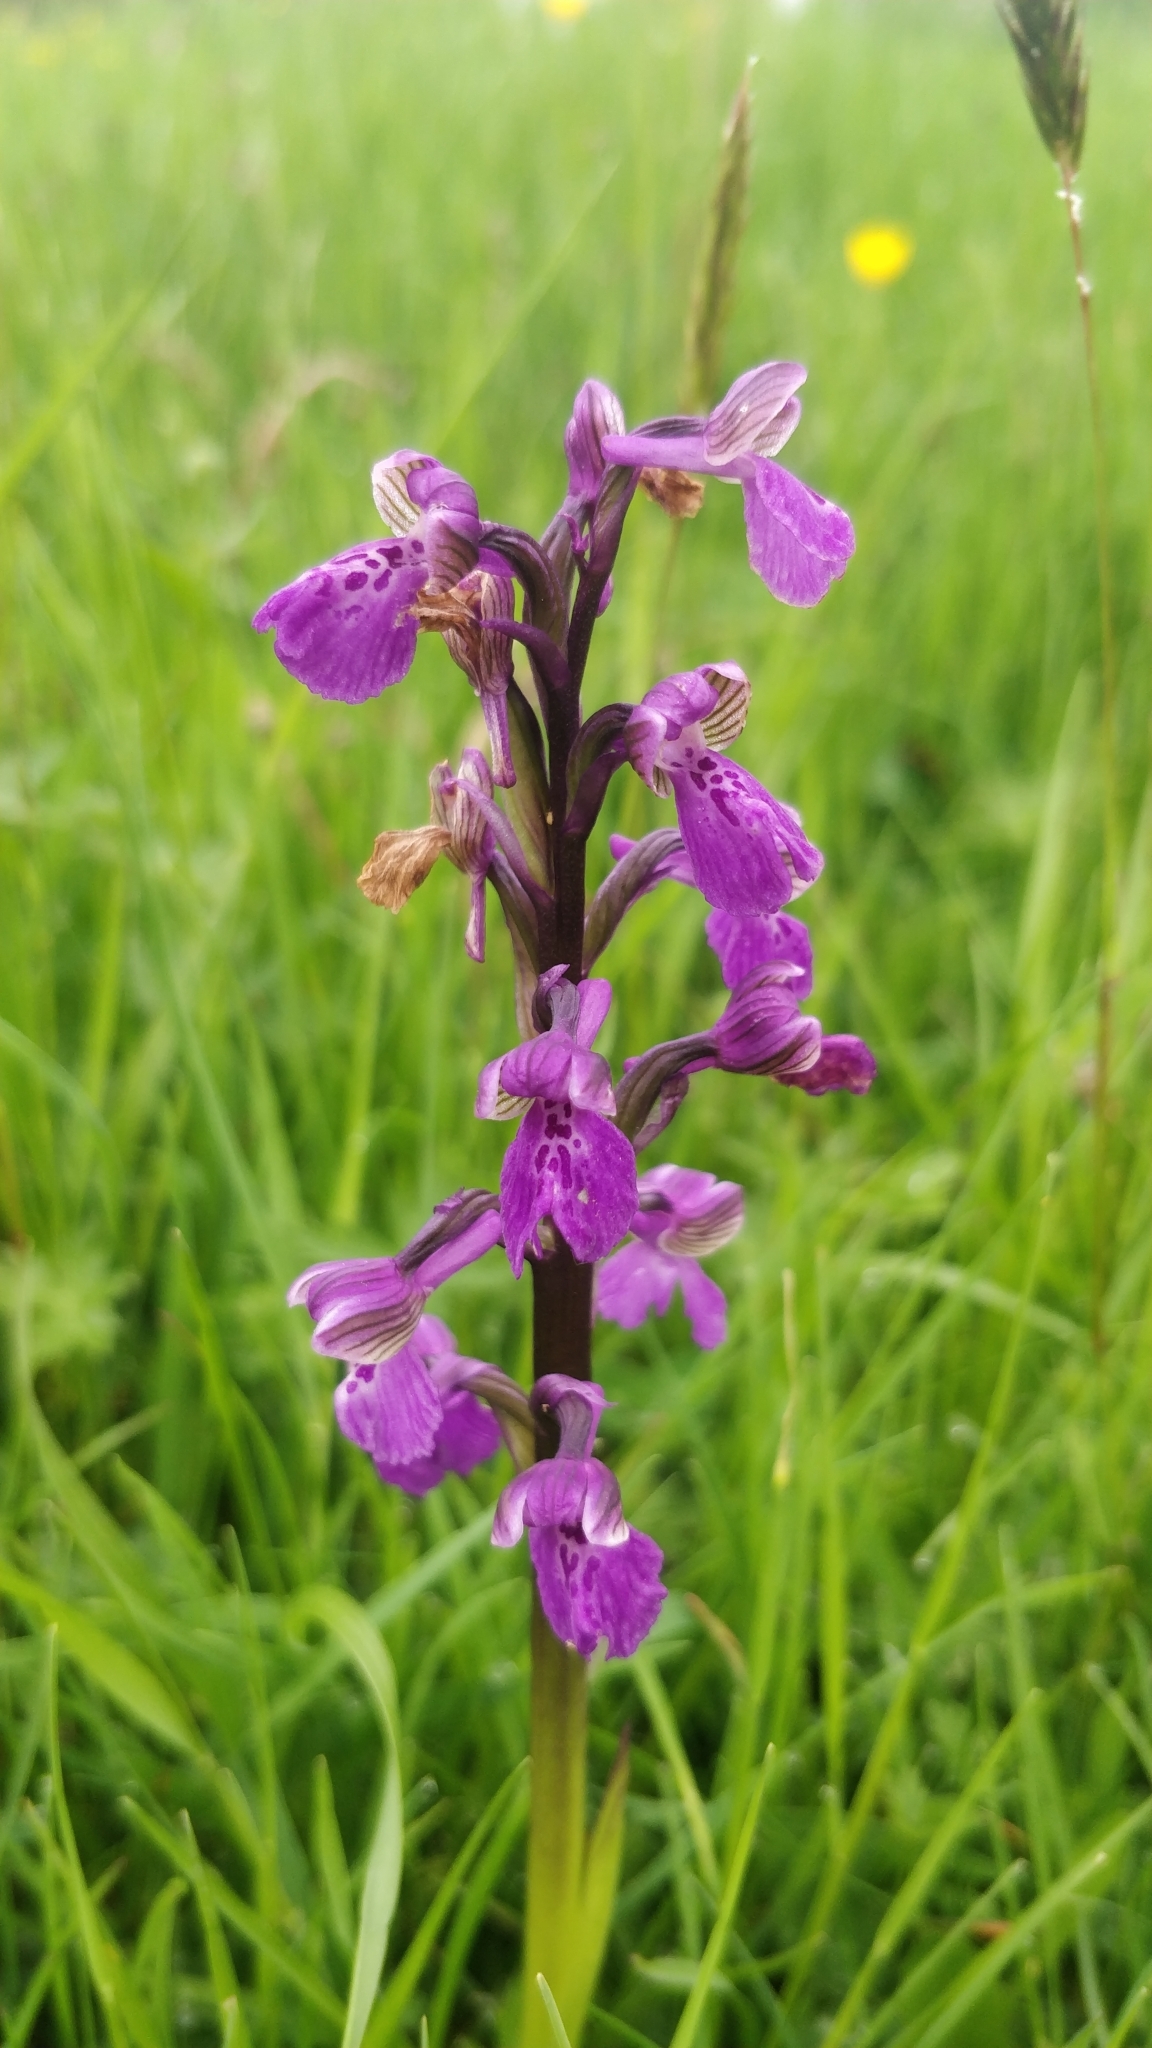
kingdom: Plantae
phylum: Tracheophyta
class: Liliopsida
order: Asparagales
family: Orchidaceae
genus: Anacamptis
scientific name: Anacamptis morio
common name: Green-winged orchid
